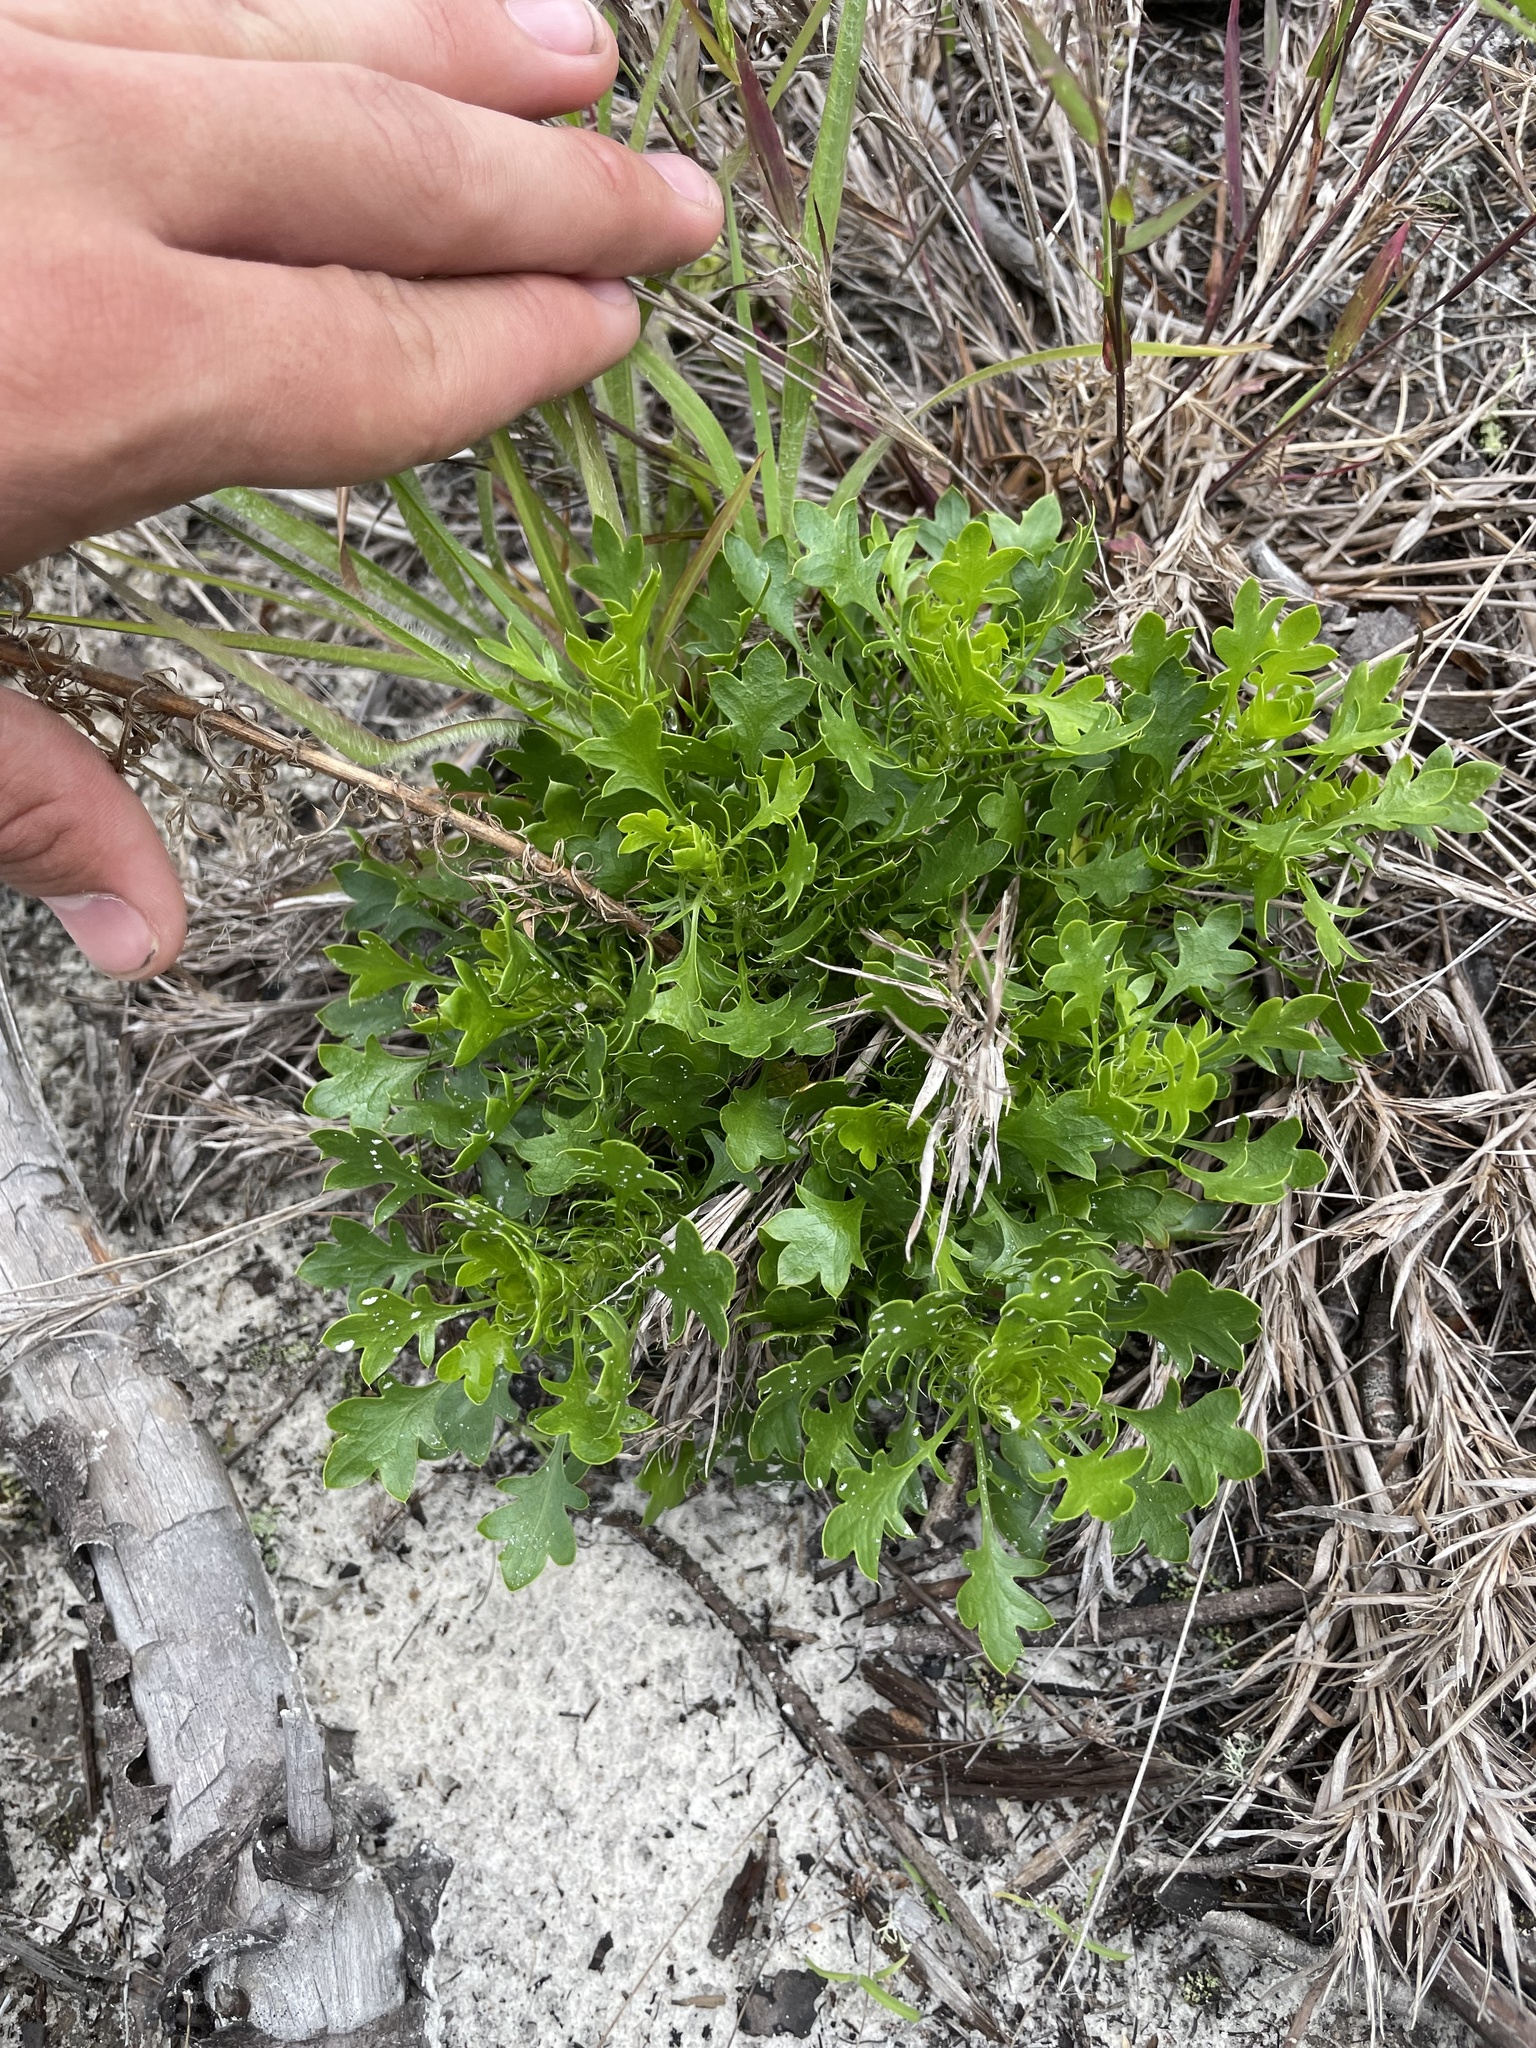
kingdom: Plantae
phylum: Tracheophyta
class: Magnoliopsida
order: Apiales
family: Apiaceae
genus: Eryngium
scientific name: Eryngium aromaticum
